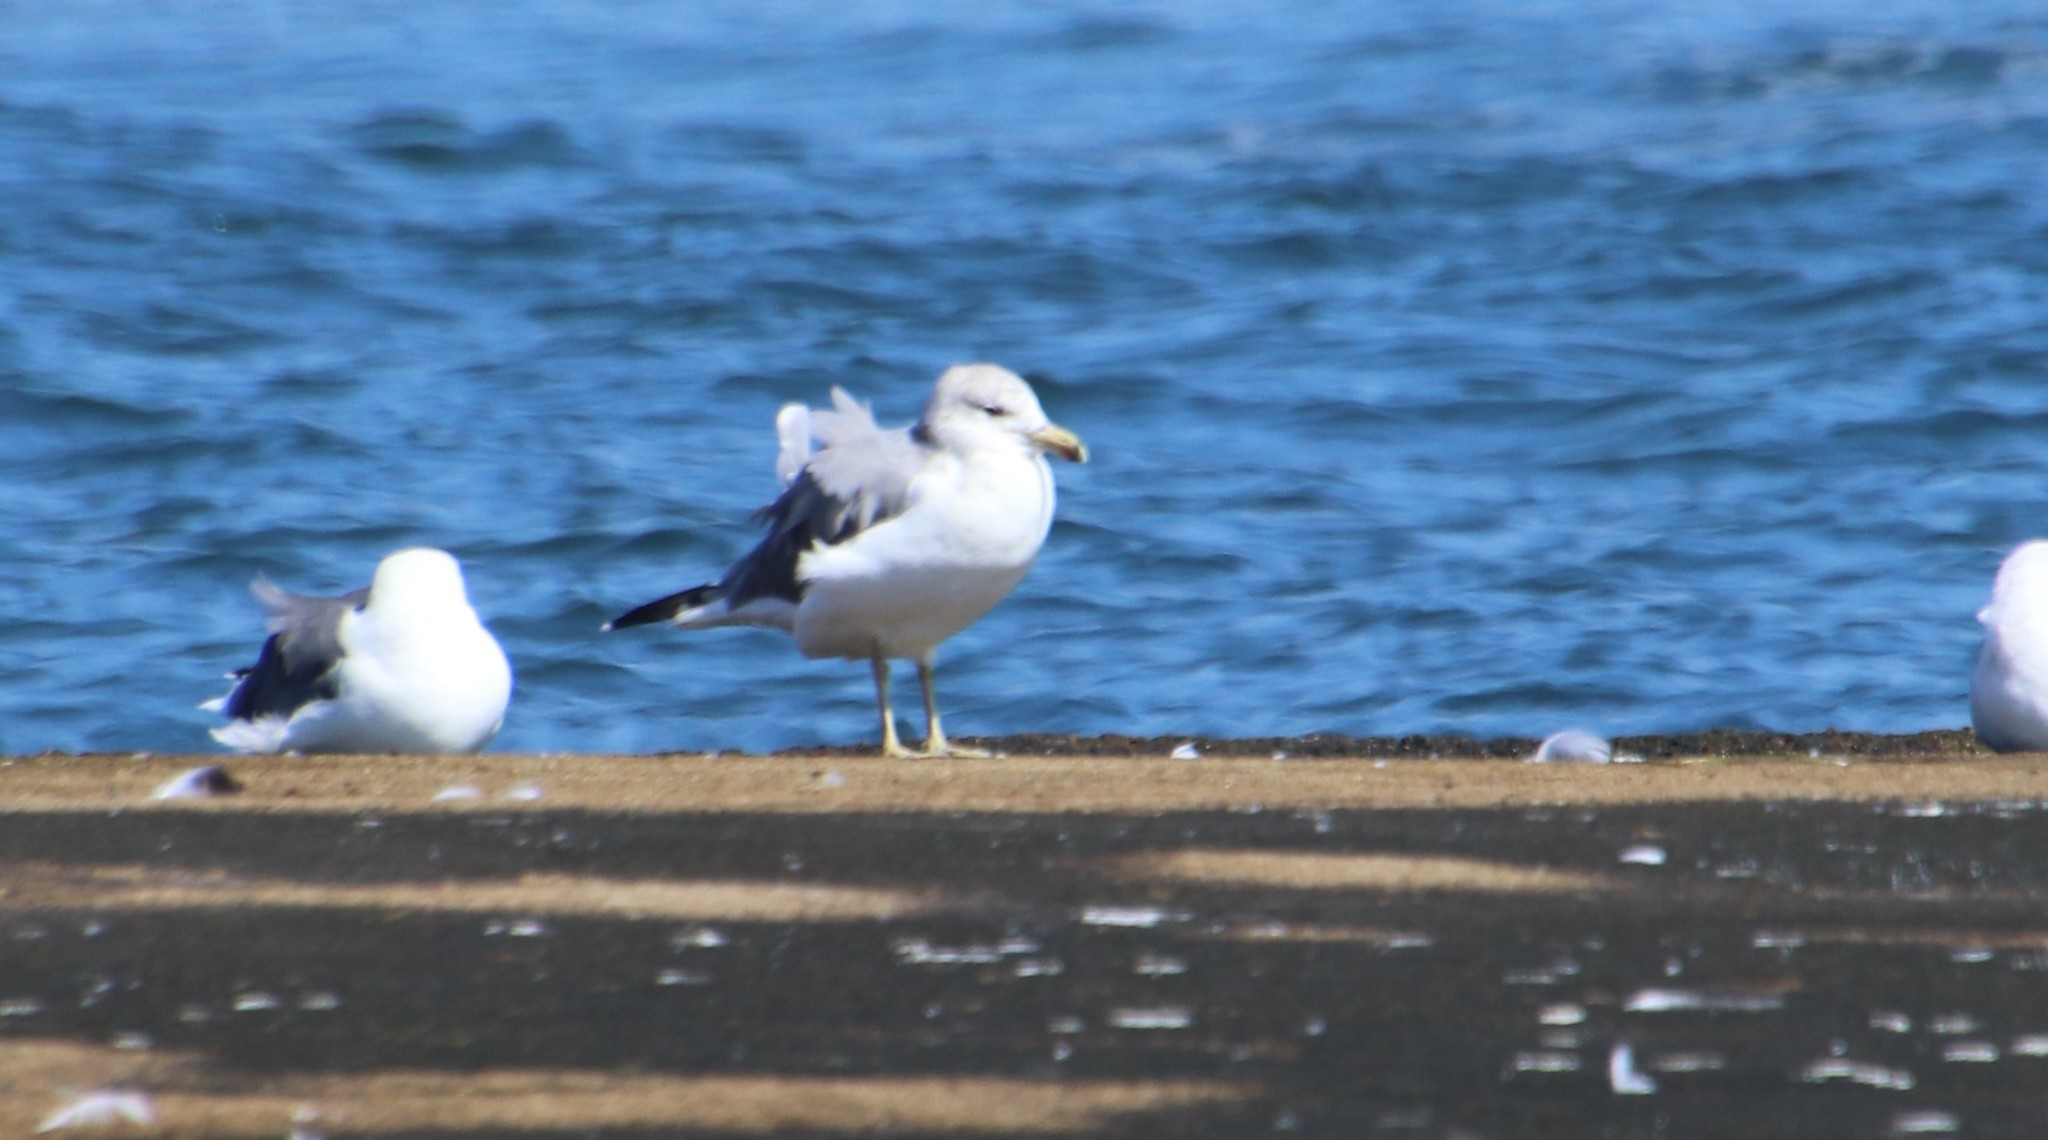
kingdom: Animalia
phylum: Chordata
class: Aves
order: Charadriiformes
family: Laridae
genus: Larus
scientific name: Larus californicus
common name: California gull
